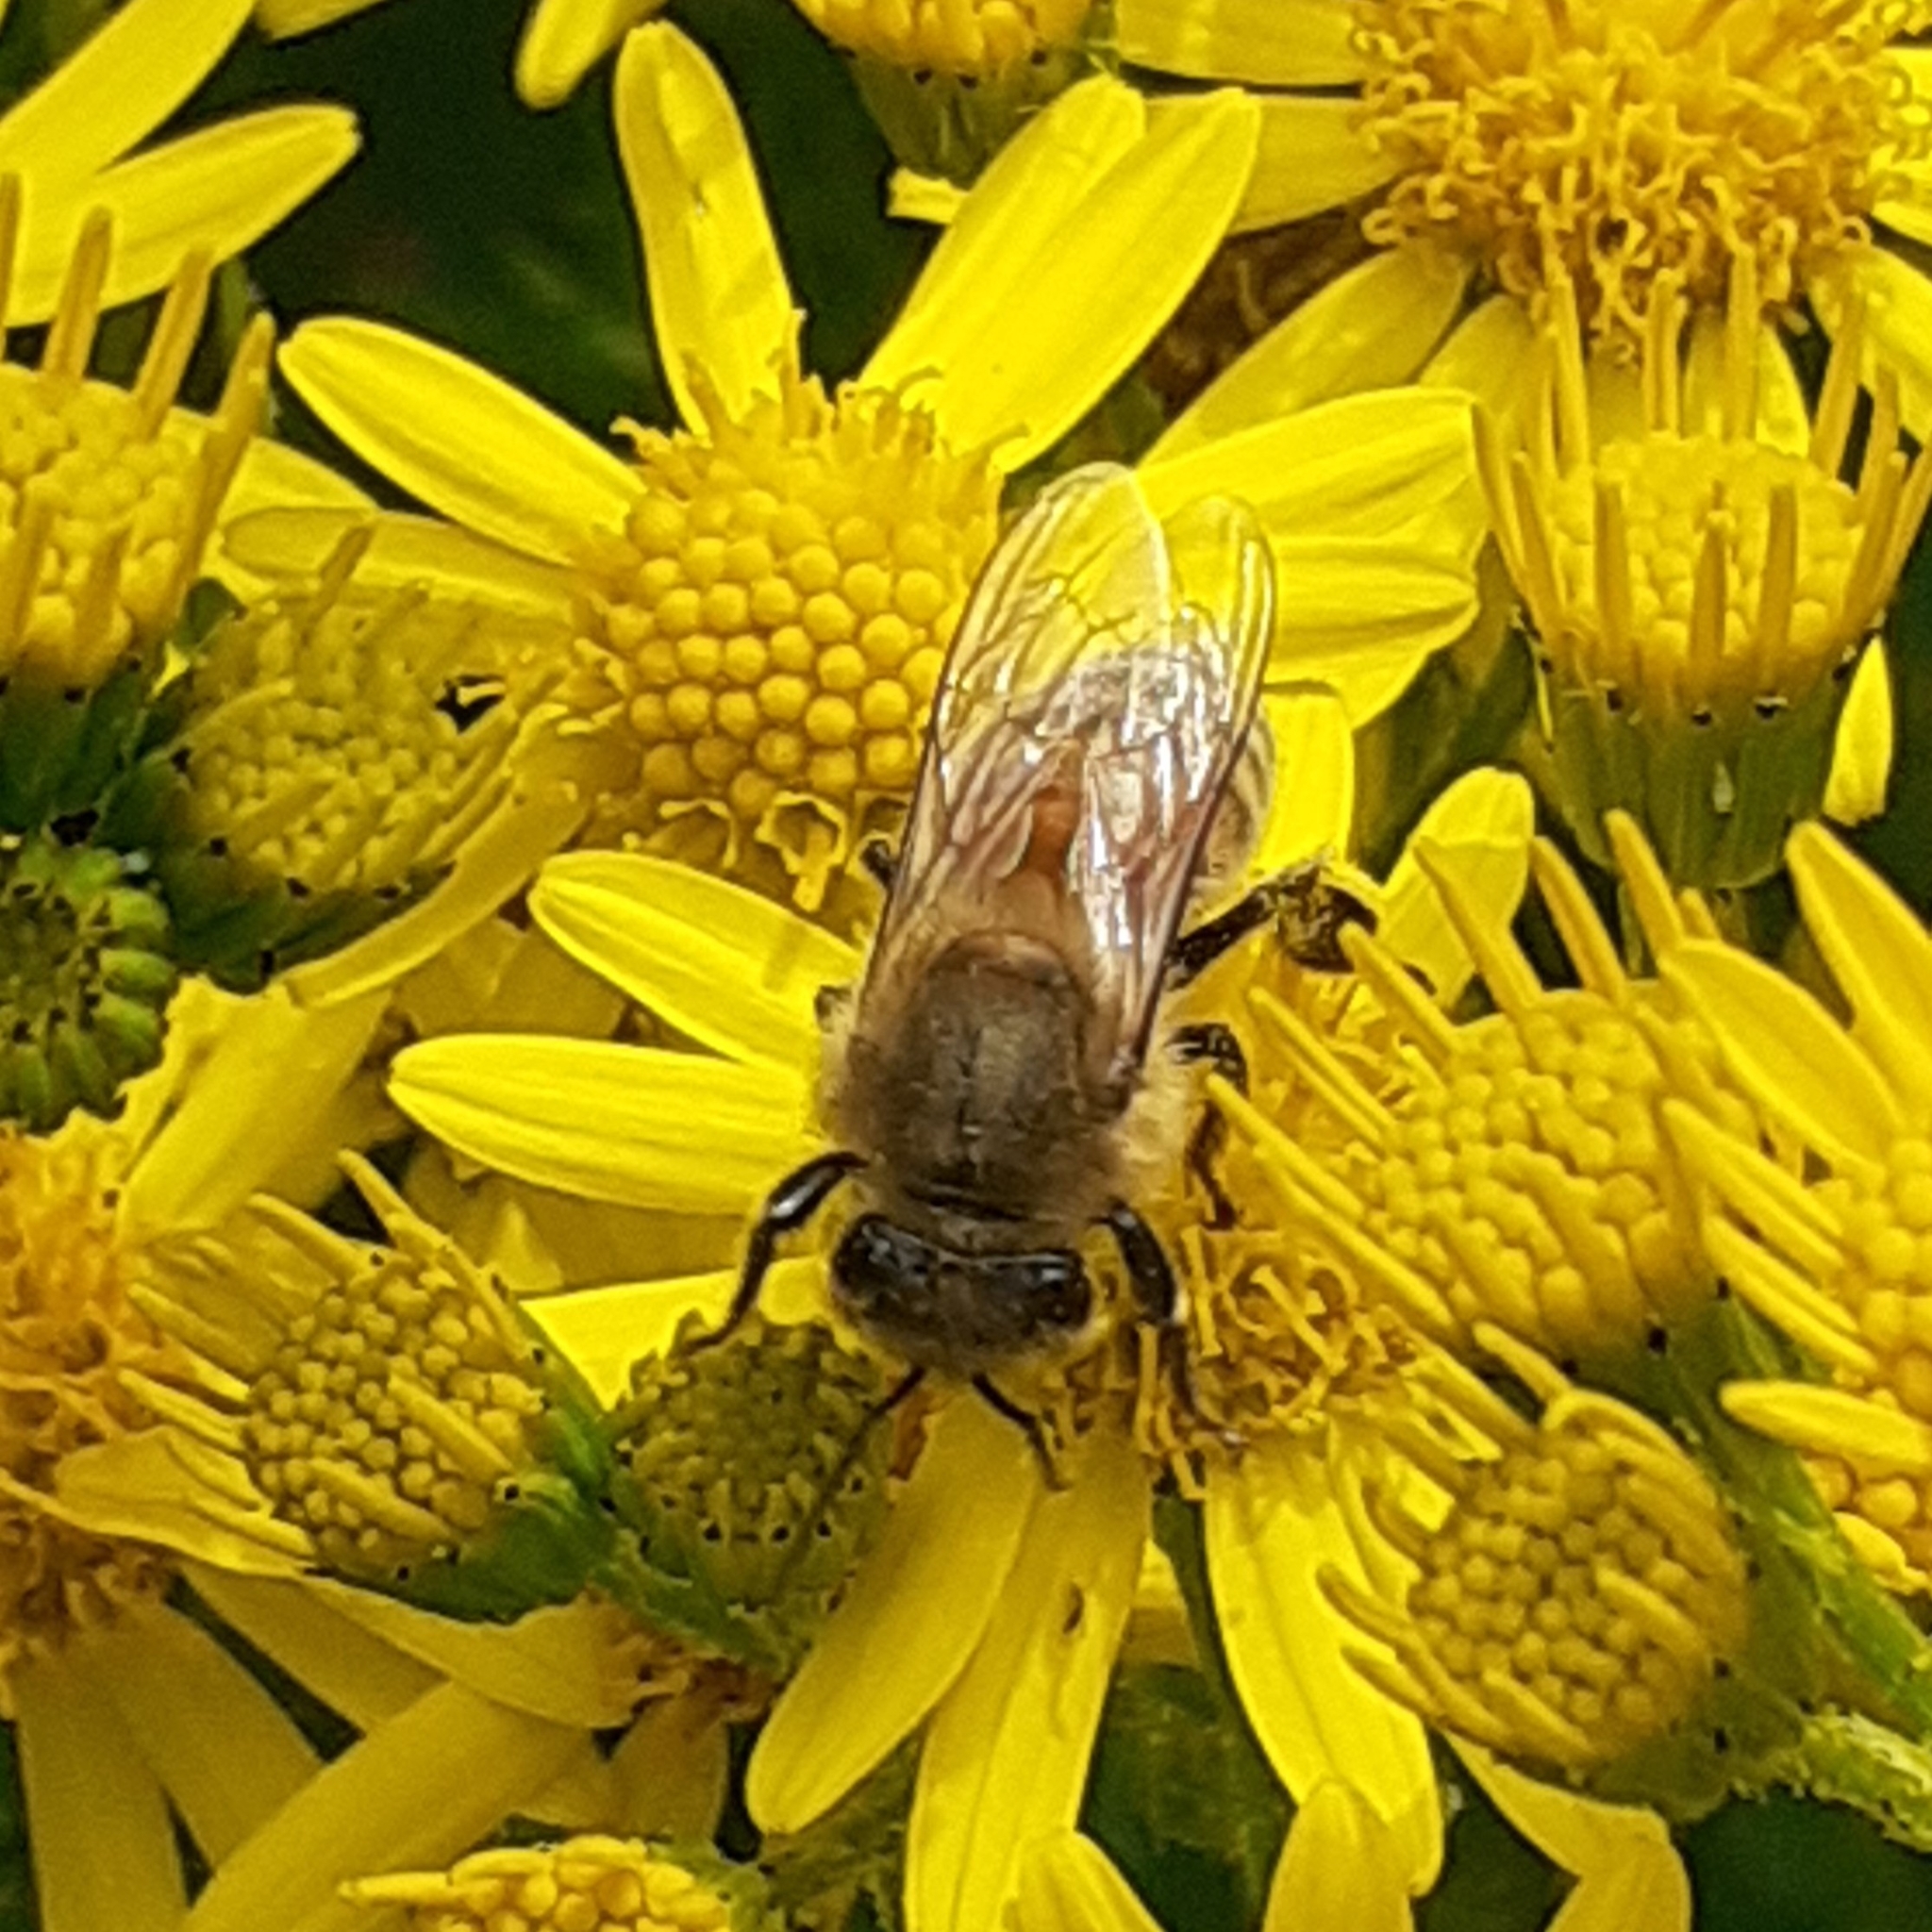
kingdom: Animalia
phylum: Arthropoda
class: Insecta
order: Hymenoptera
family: Apidae
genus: Apis
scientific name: Apis mellifera
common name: Honey bee
